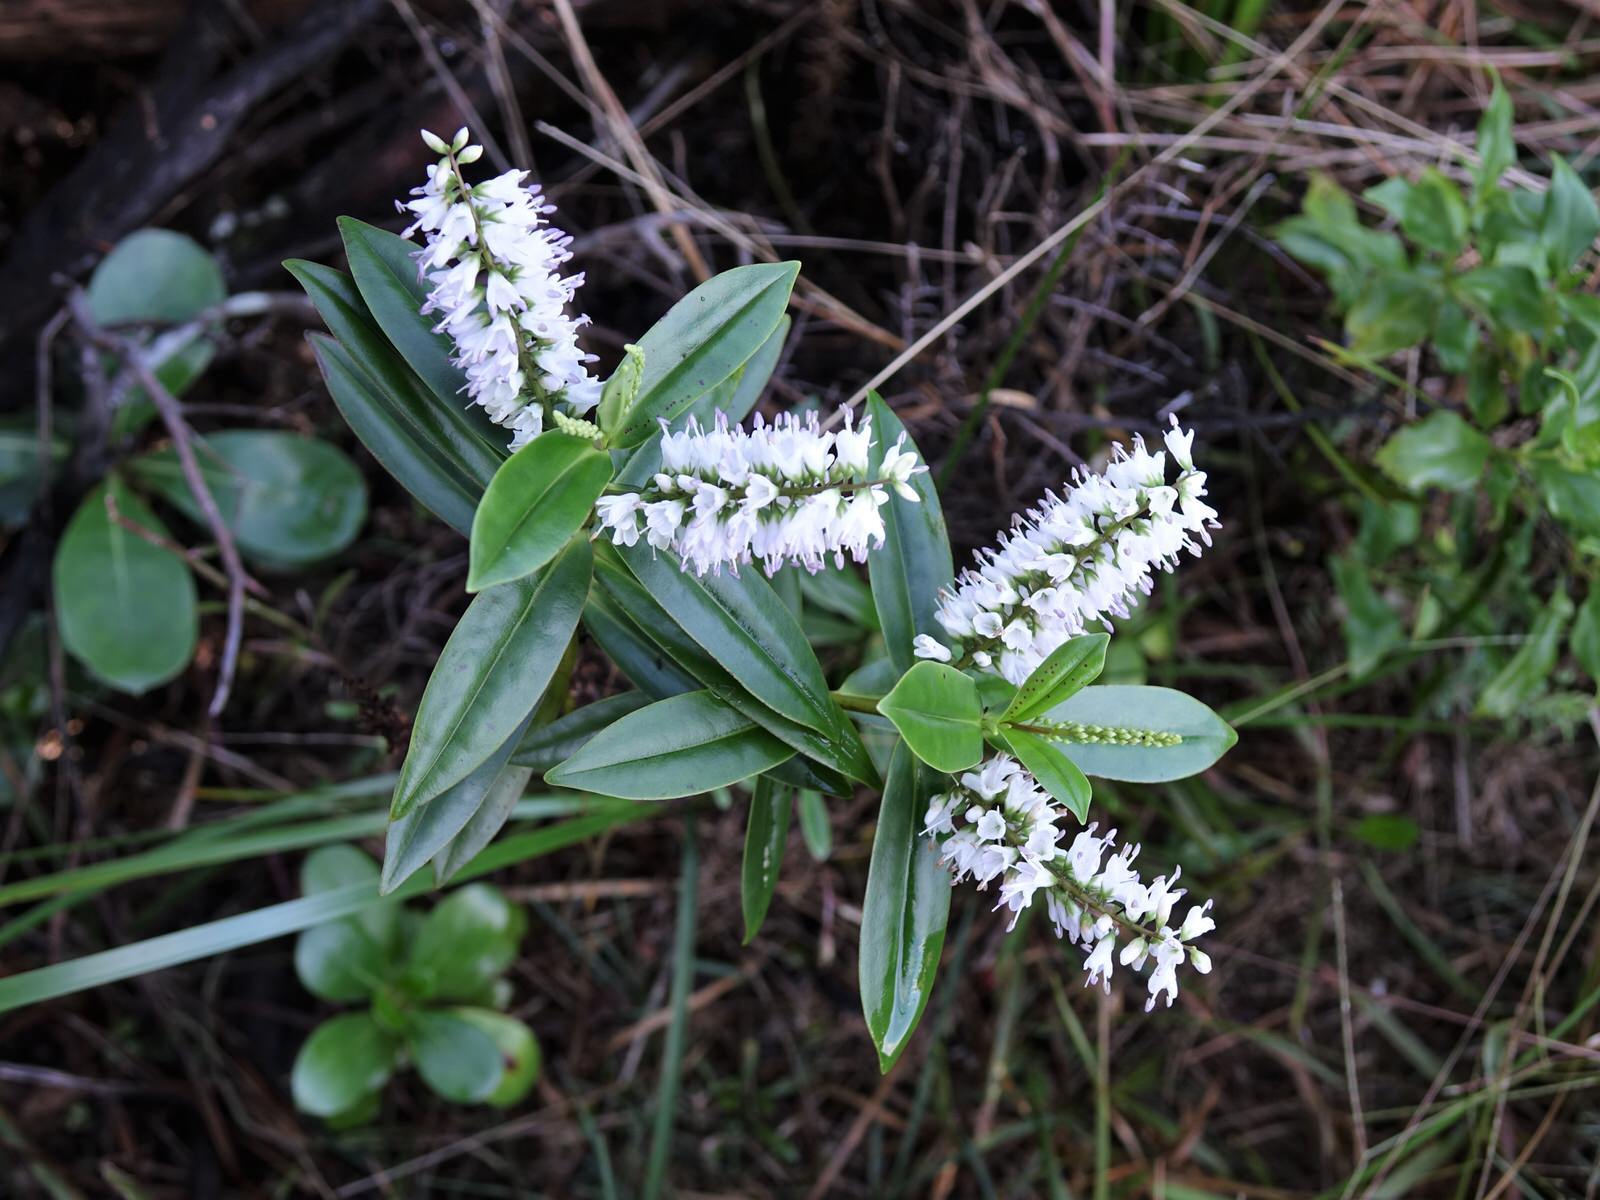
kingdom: Plantae
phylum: Tracheophyta
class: Magnoliopsida
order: Lamiales
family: Plantaginaceae
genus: Veronica
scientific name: Veronica macrocarpa
